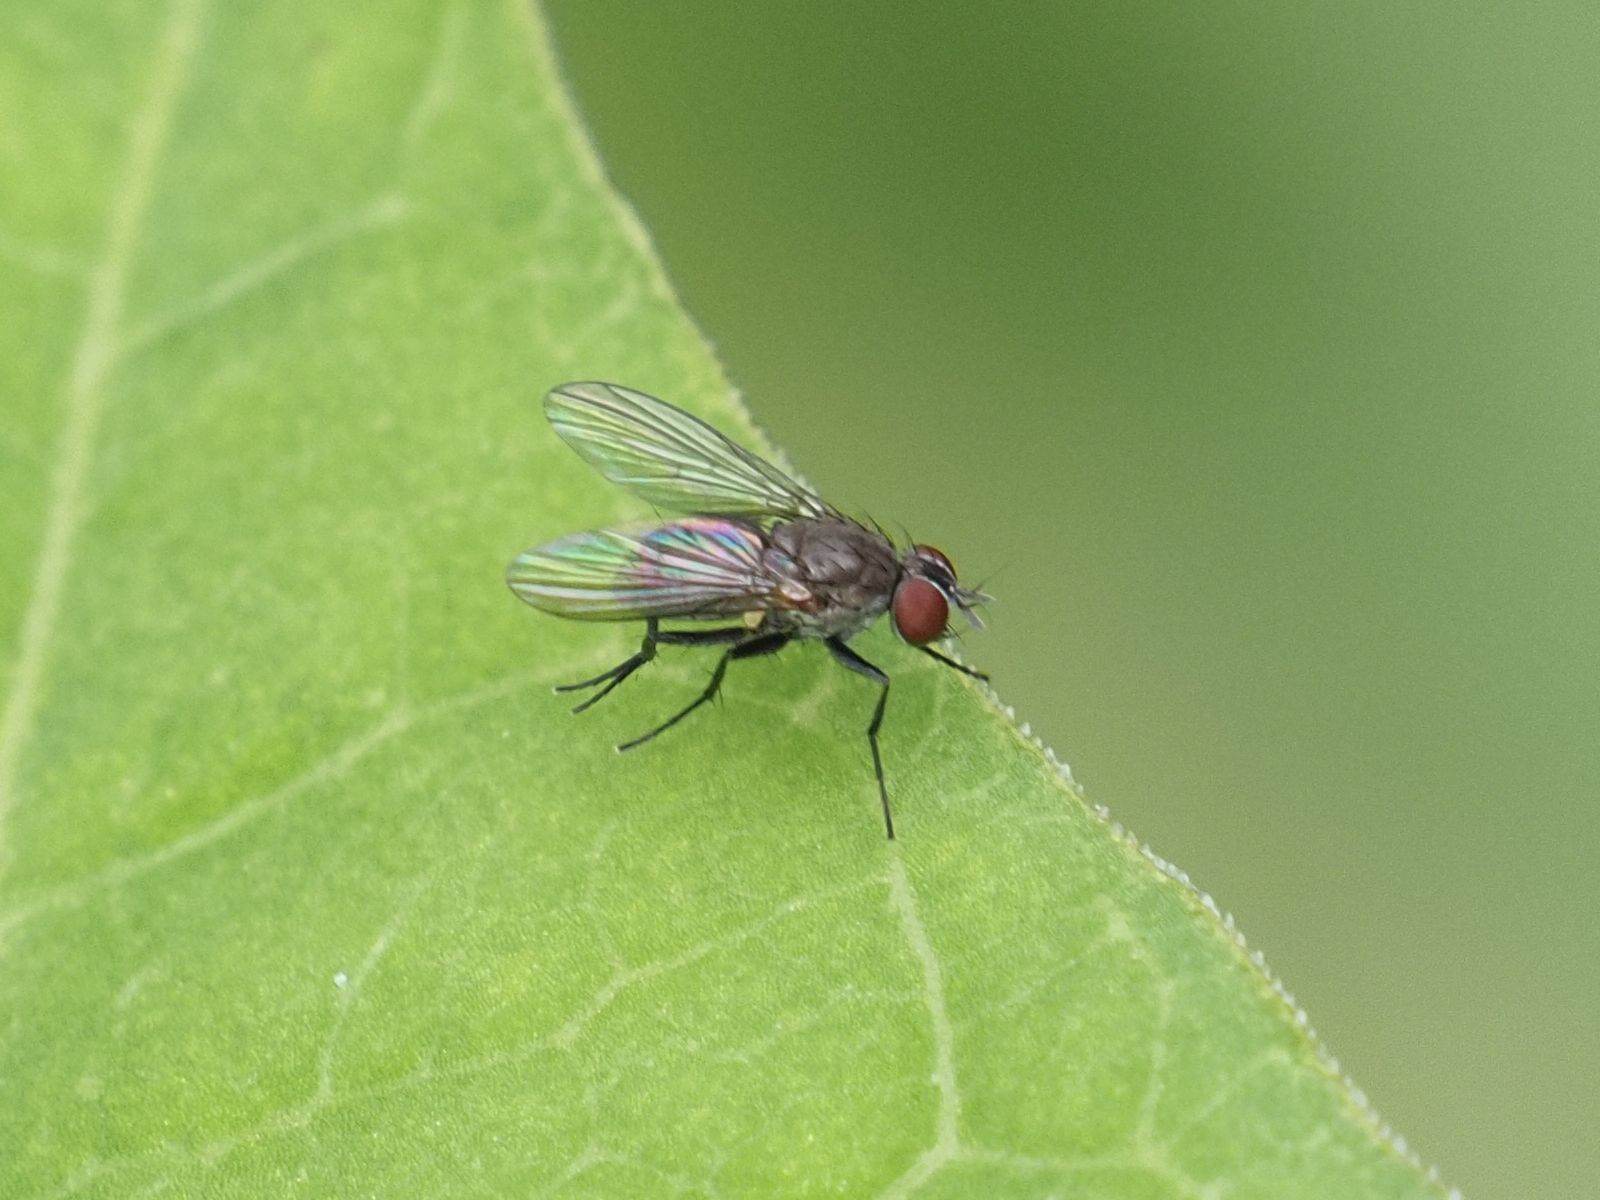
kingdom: Animalia
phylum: Arthropoda
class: Insecta
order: Diptera
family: Muscidae
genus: Coenosia
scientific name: Coenosia agromyzina
